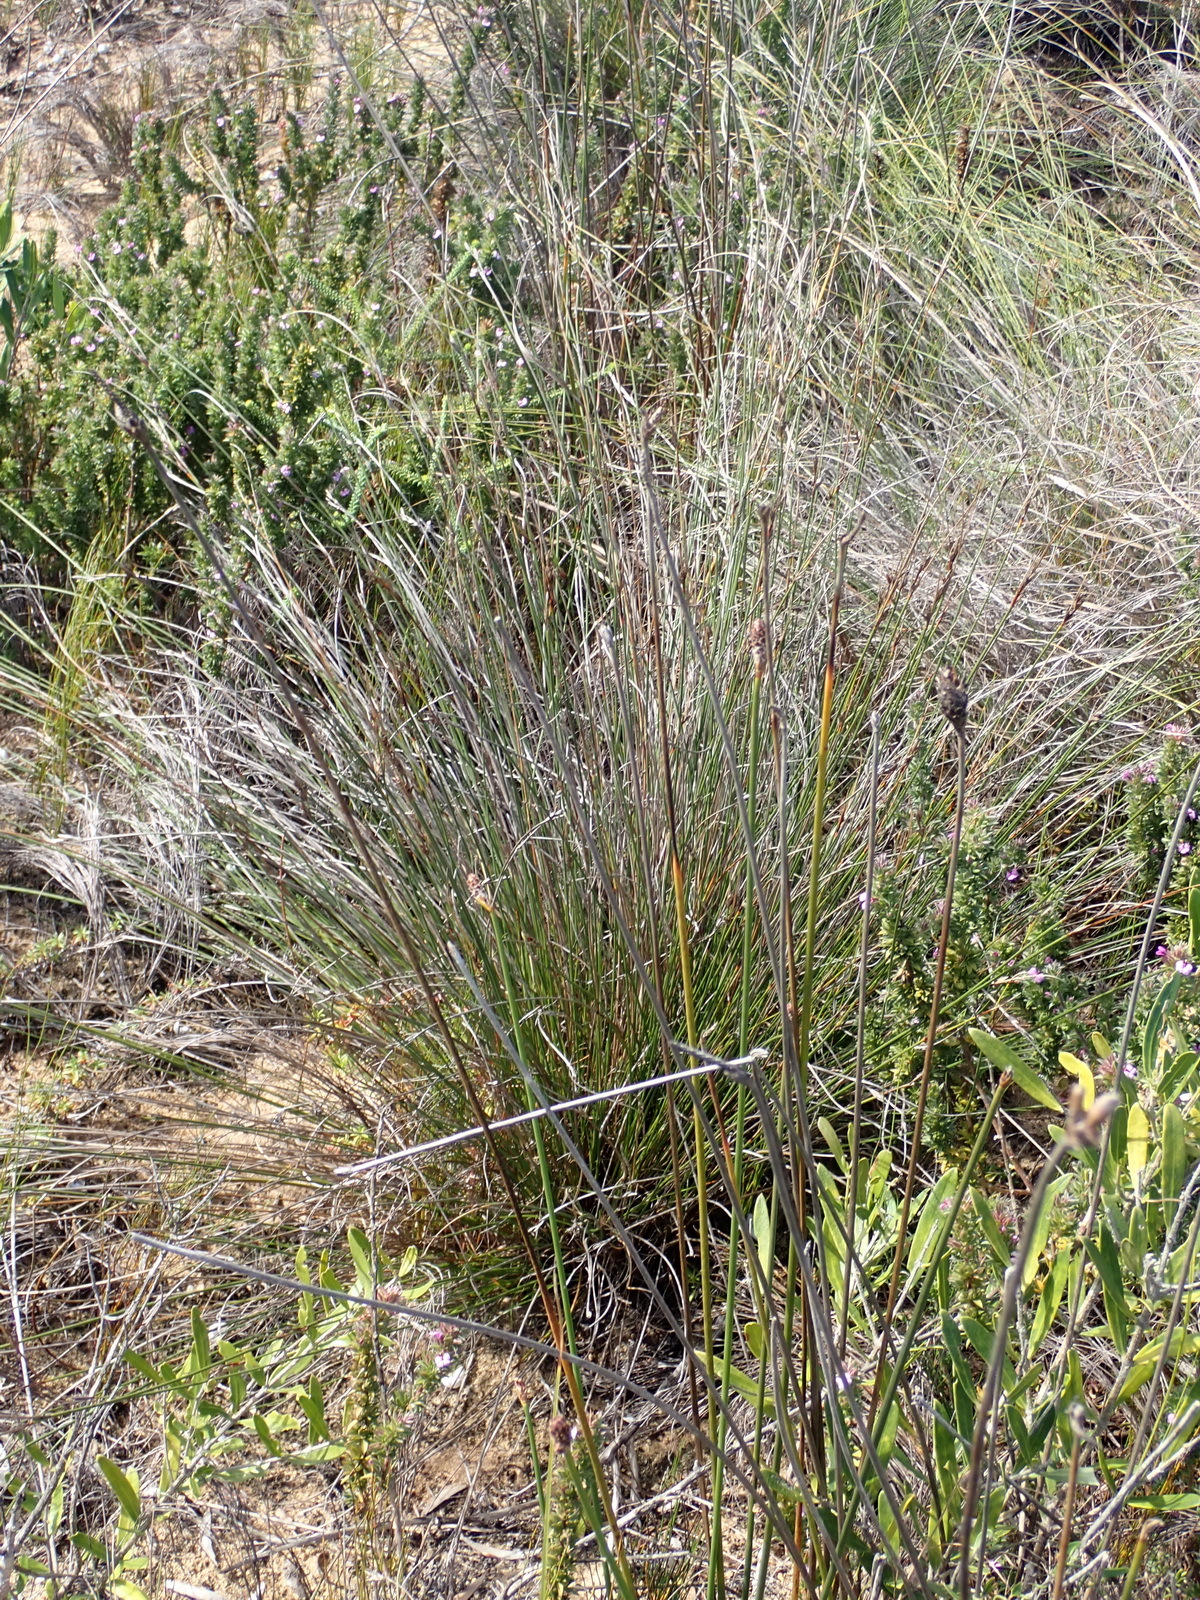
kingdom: Plantae
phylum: Tracheophyta
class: Liliopsida
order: Poales
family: Cyperaceae
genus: Hellmuthia
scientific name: Hellmuthia membranacea
